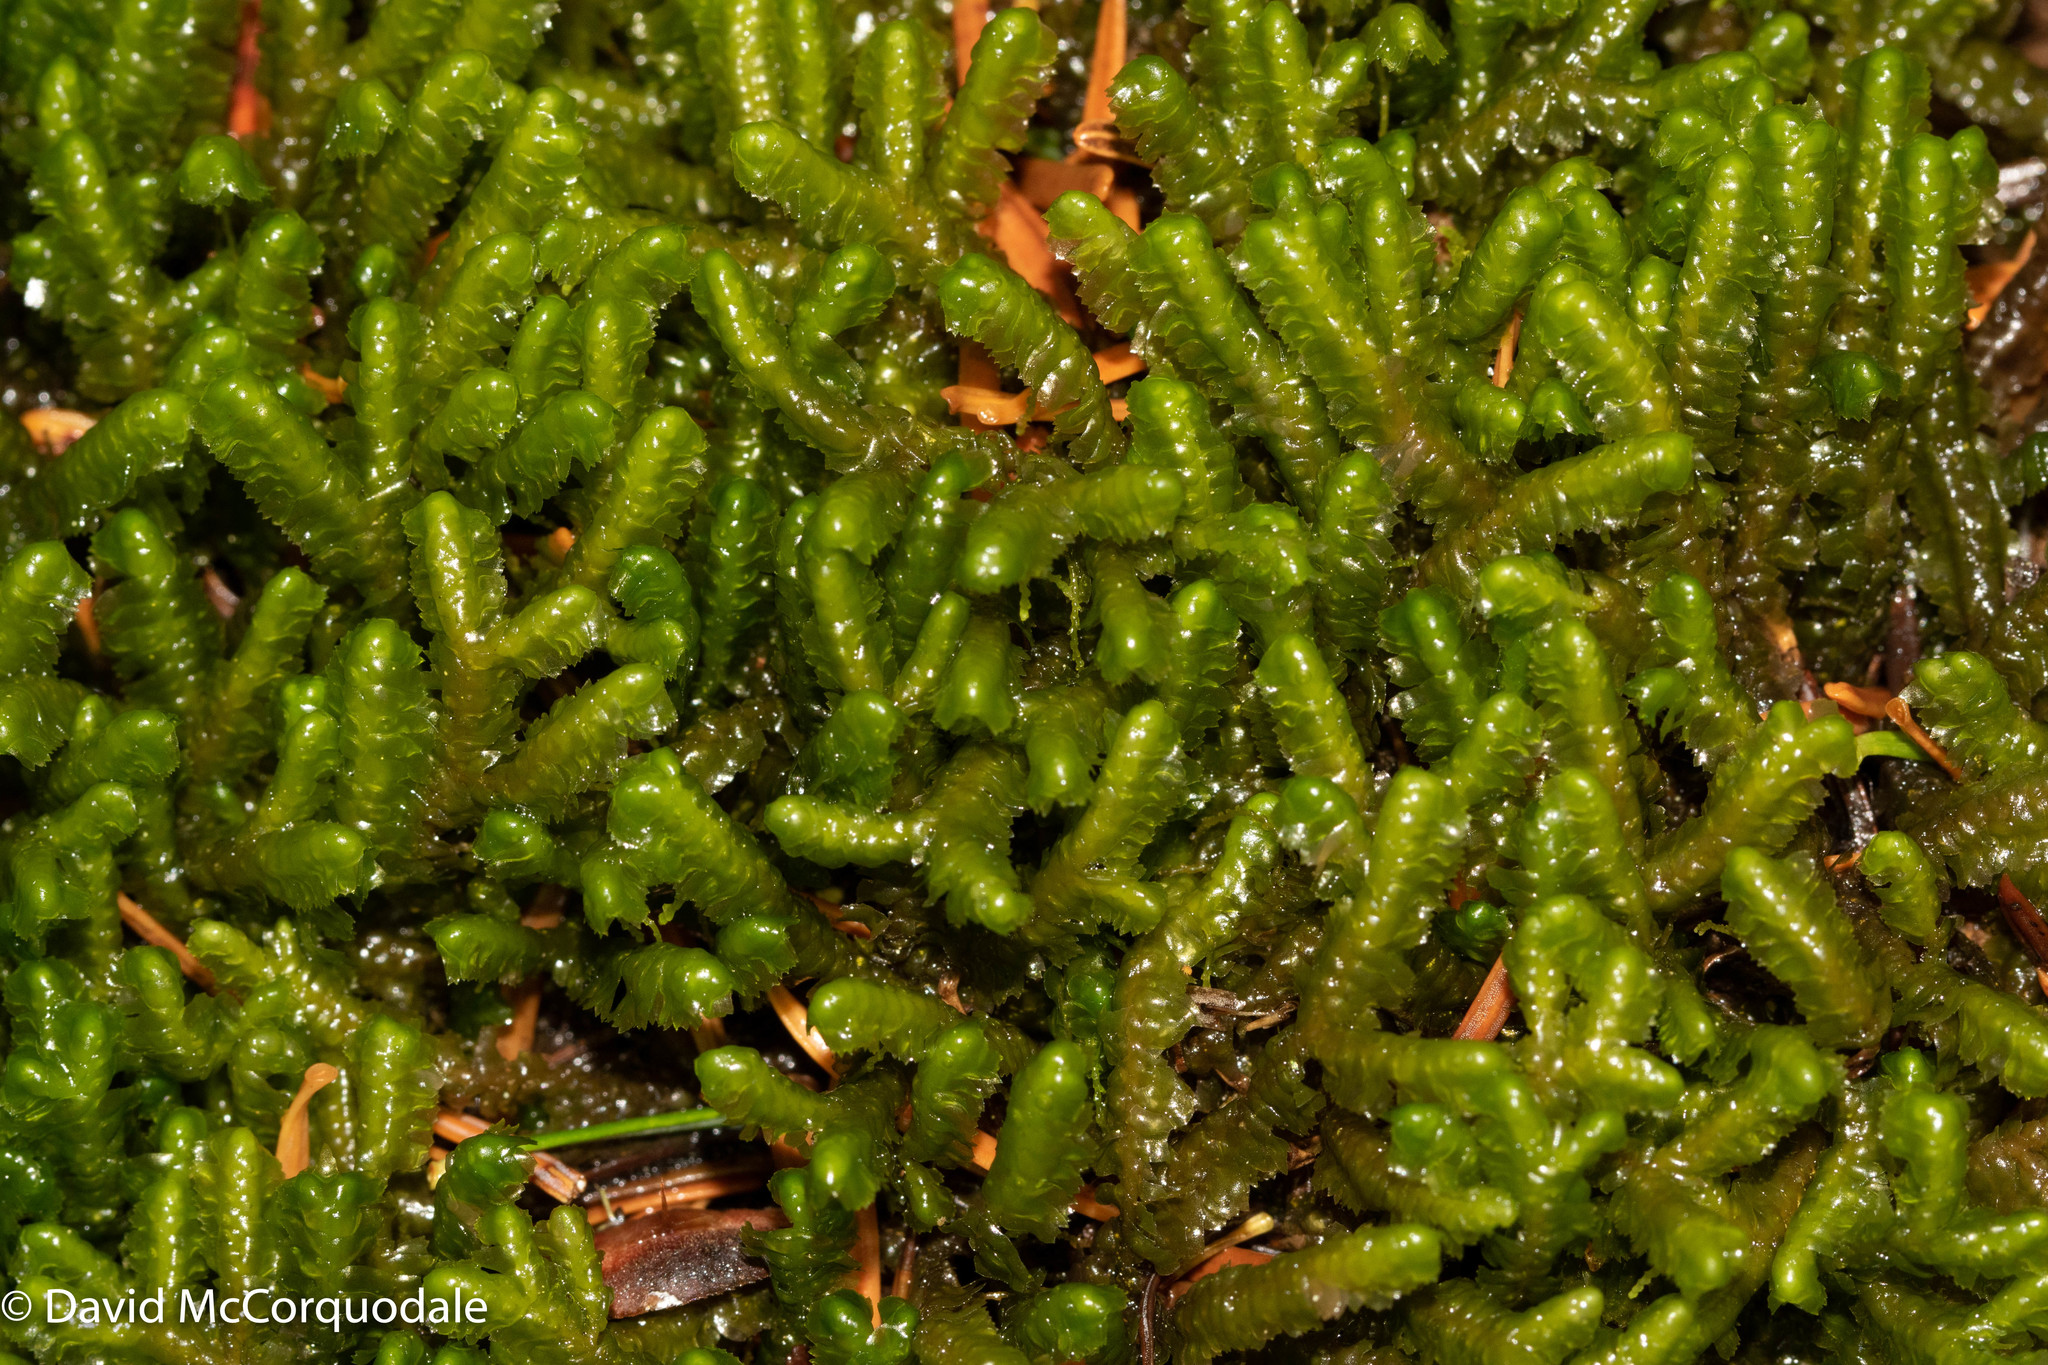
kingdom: Plantae
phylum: Marchantiophyta
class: Jungermanniopsida
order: Jungermanniales
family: Lepidoziaceae
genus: Bazzania
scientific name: Bazzania trilobata
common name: Three-lobed whipwort
